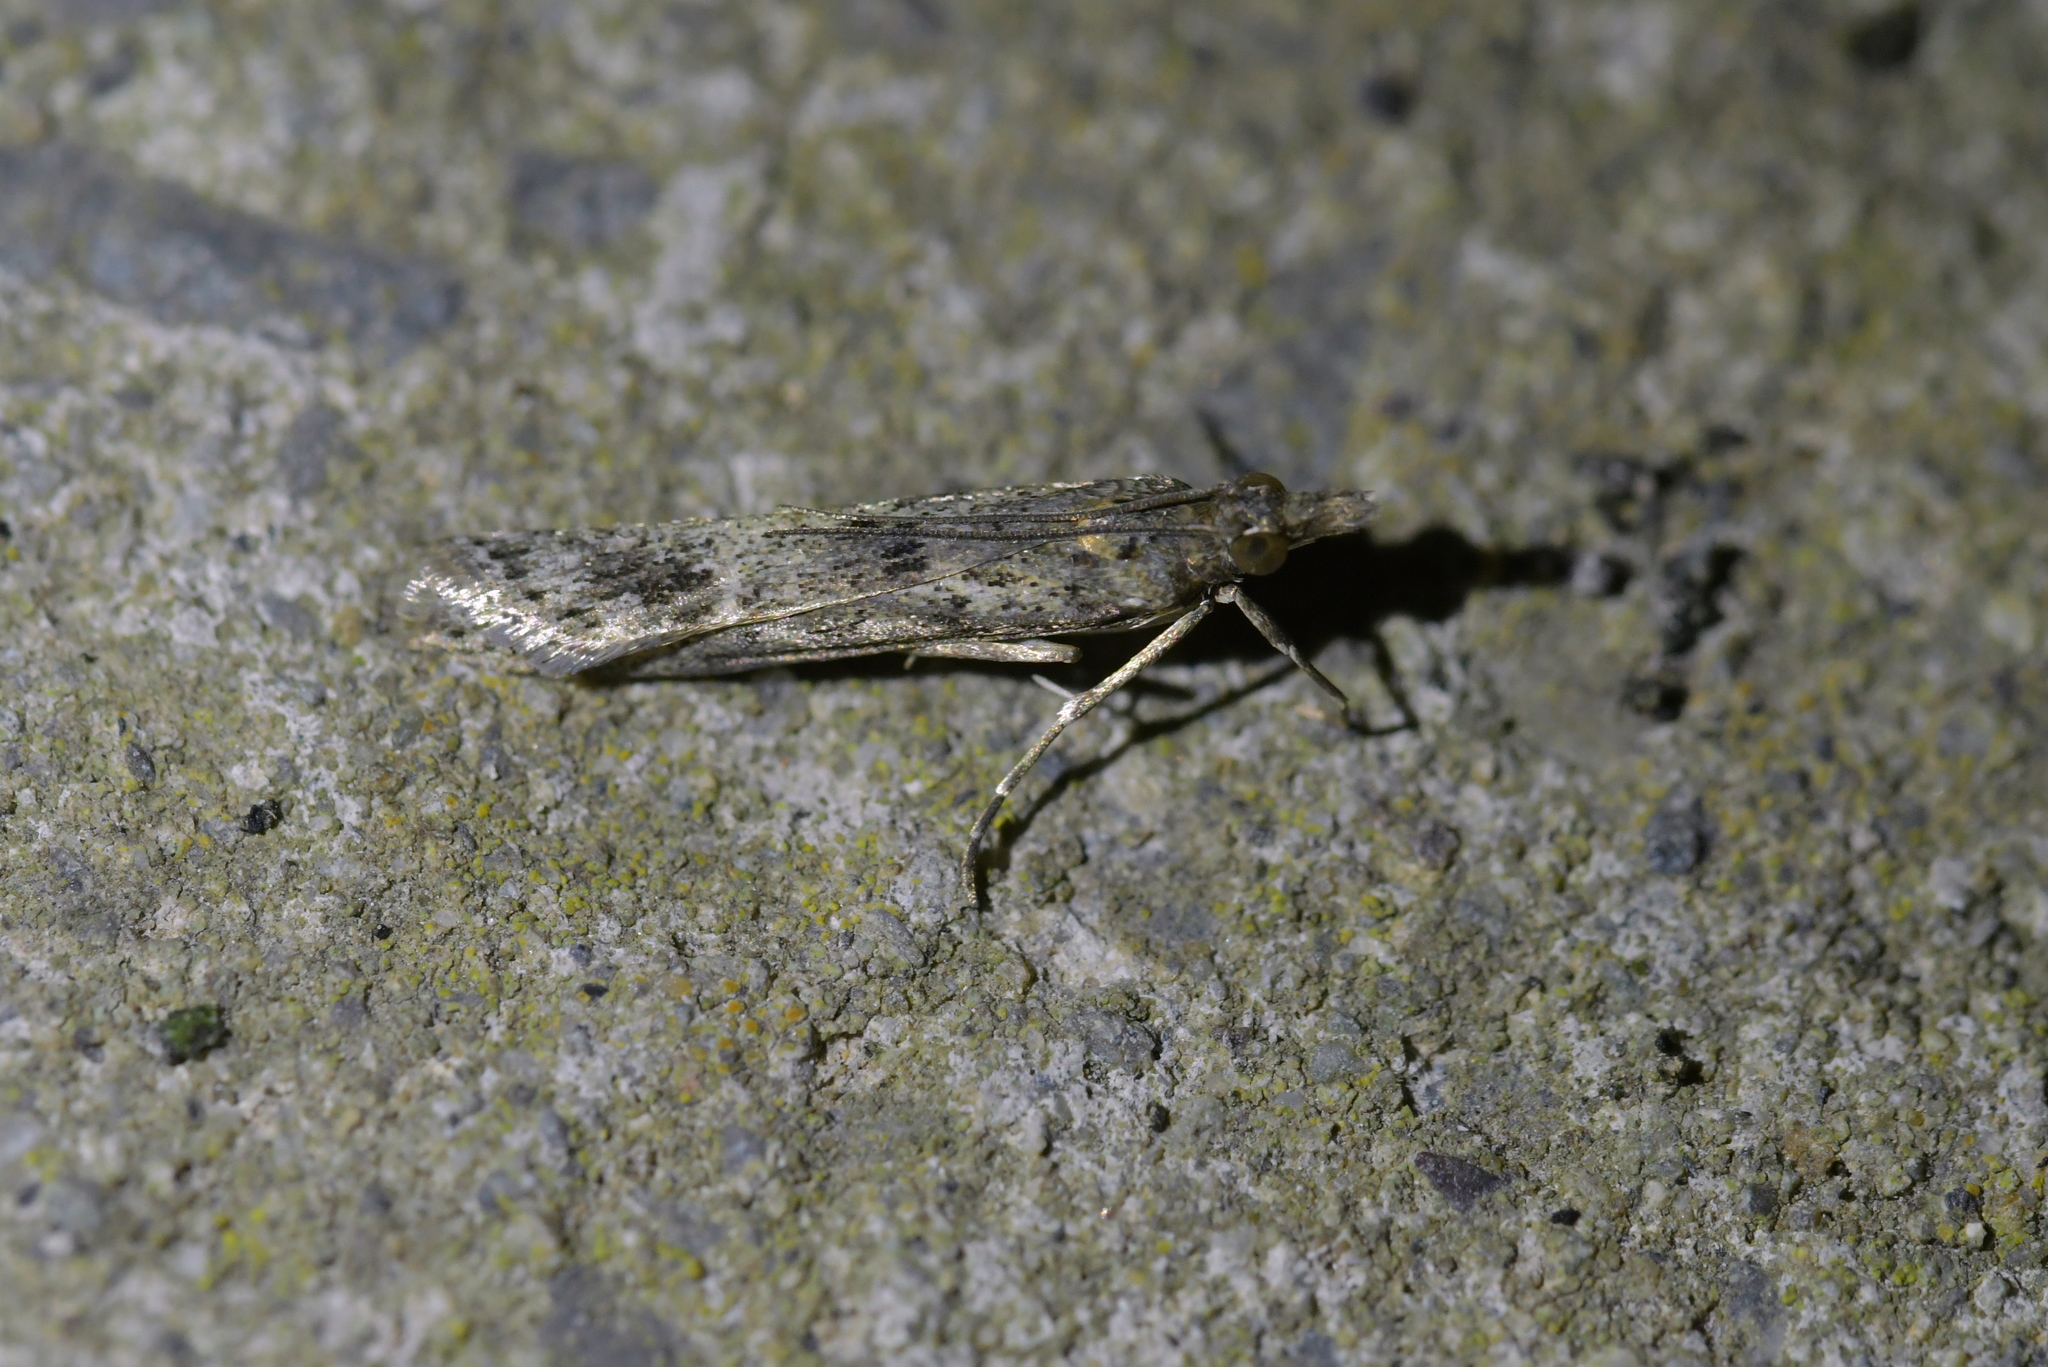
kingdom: Animalia
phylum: Arthropoda
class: Insecta
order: Lepidoptera
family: Crambidae
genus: Eudonia
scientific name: Eudonia leptalea
